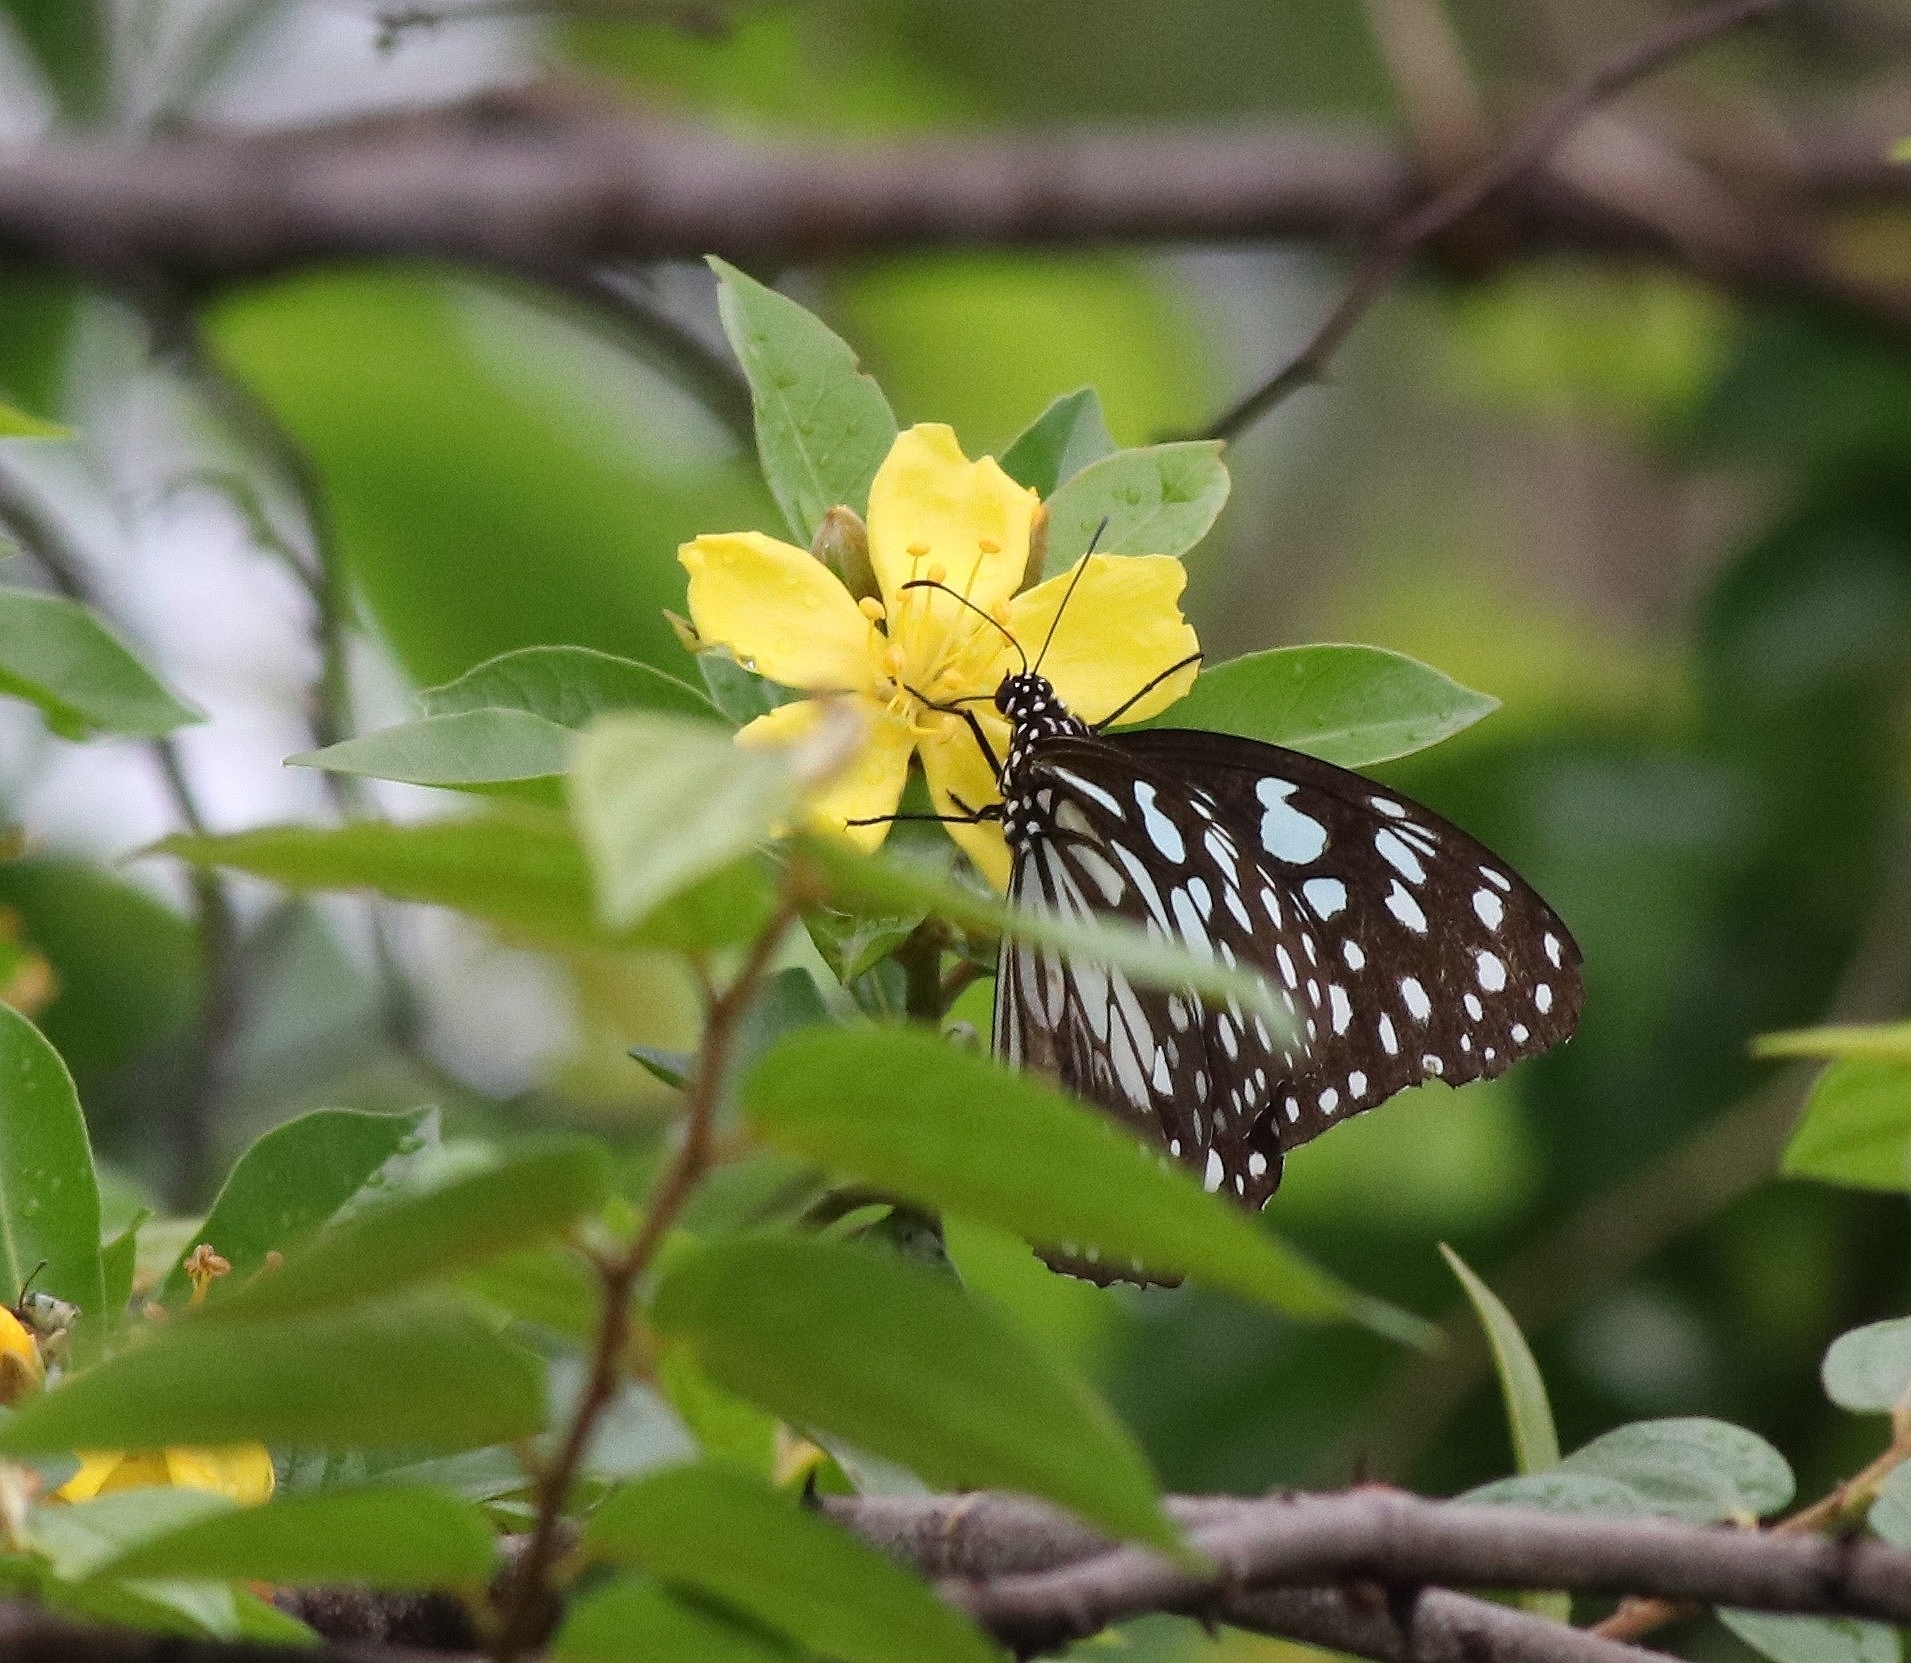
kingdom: Animalia
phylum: Arthropoda
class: Insecta
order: Lepidoptera
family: Nymphalidae
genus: Tirumala
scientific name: Tirumala limniace
